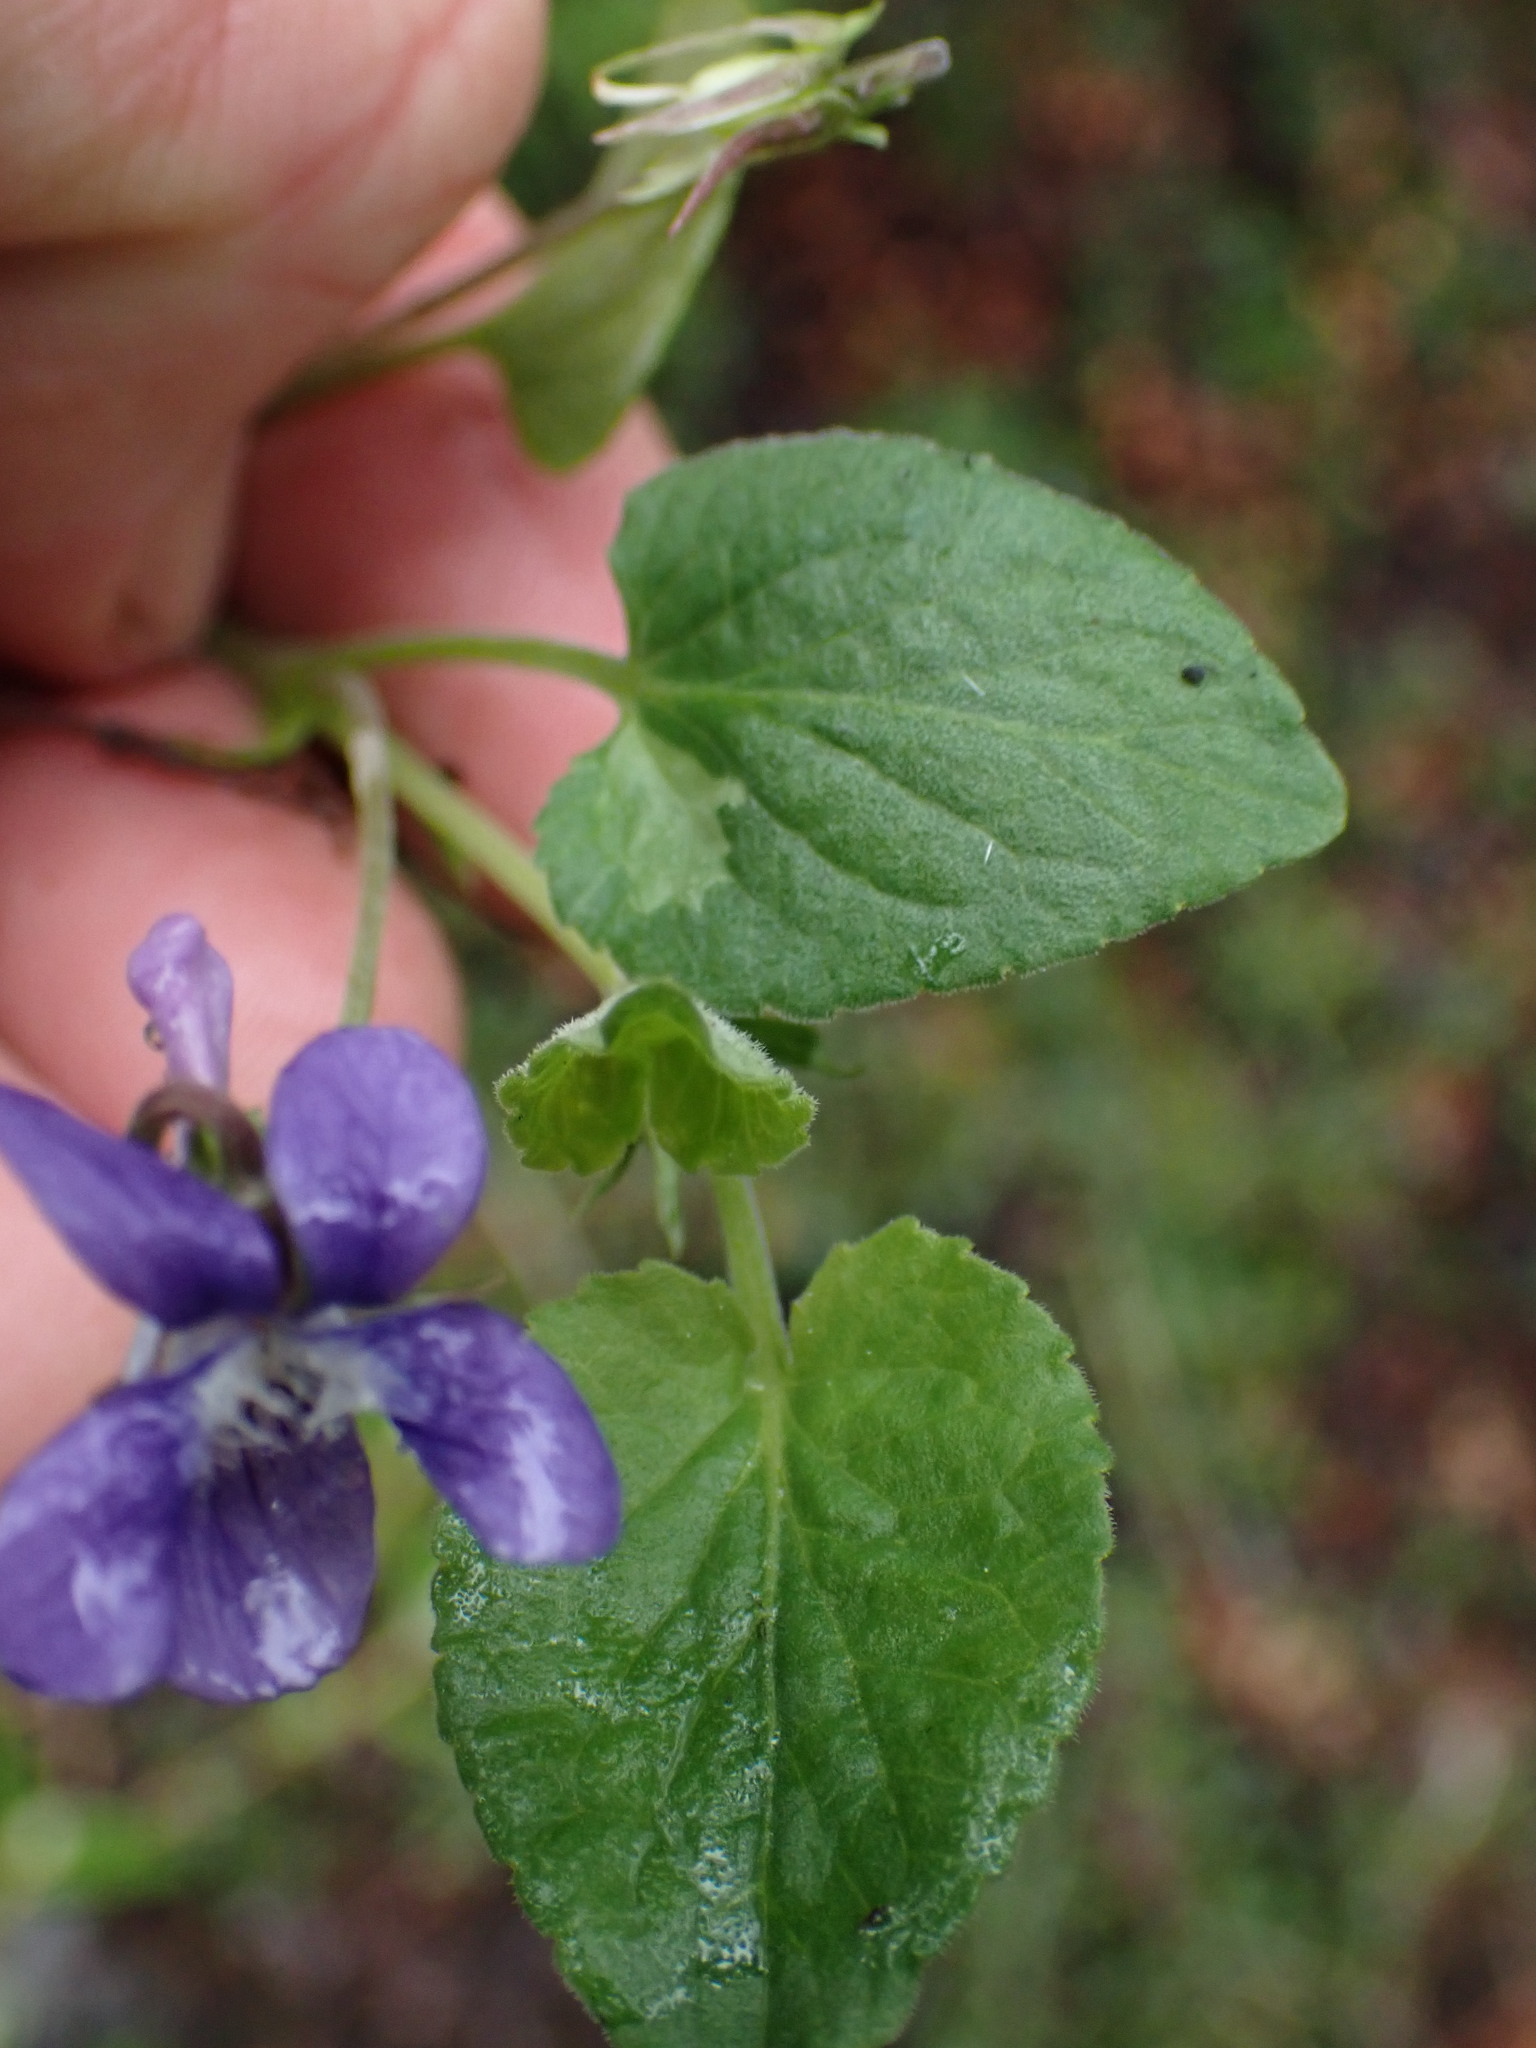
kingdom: Plantae
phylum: Tracheophyta
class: Magnoliopsida
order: Malpighiales
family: Violaceae
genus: Viola
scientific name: Viola adunca
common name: Sand violet
